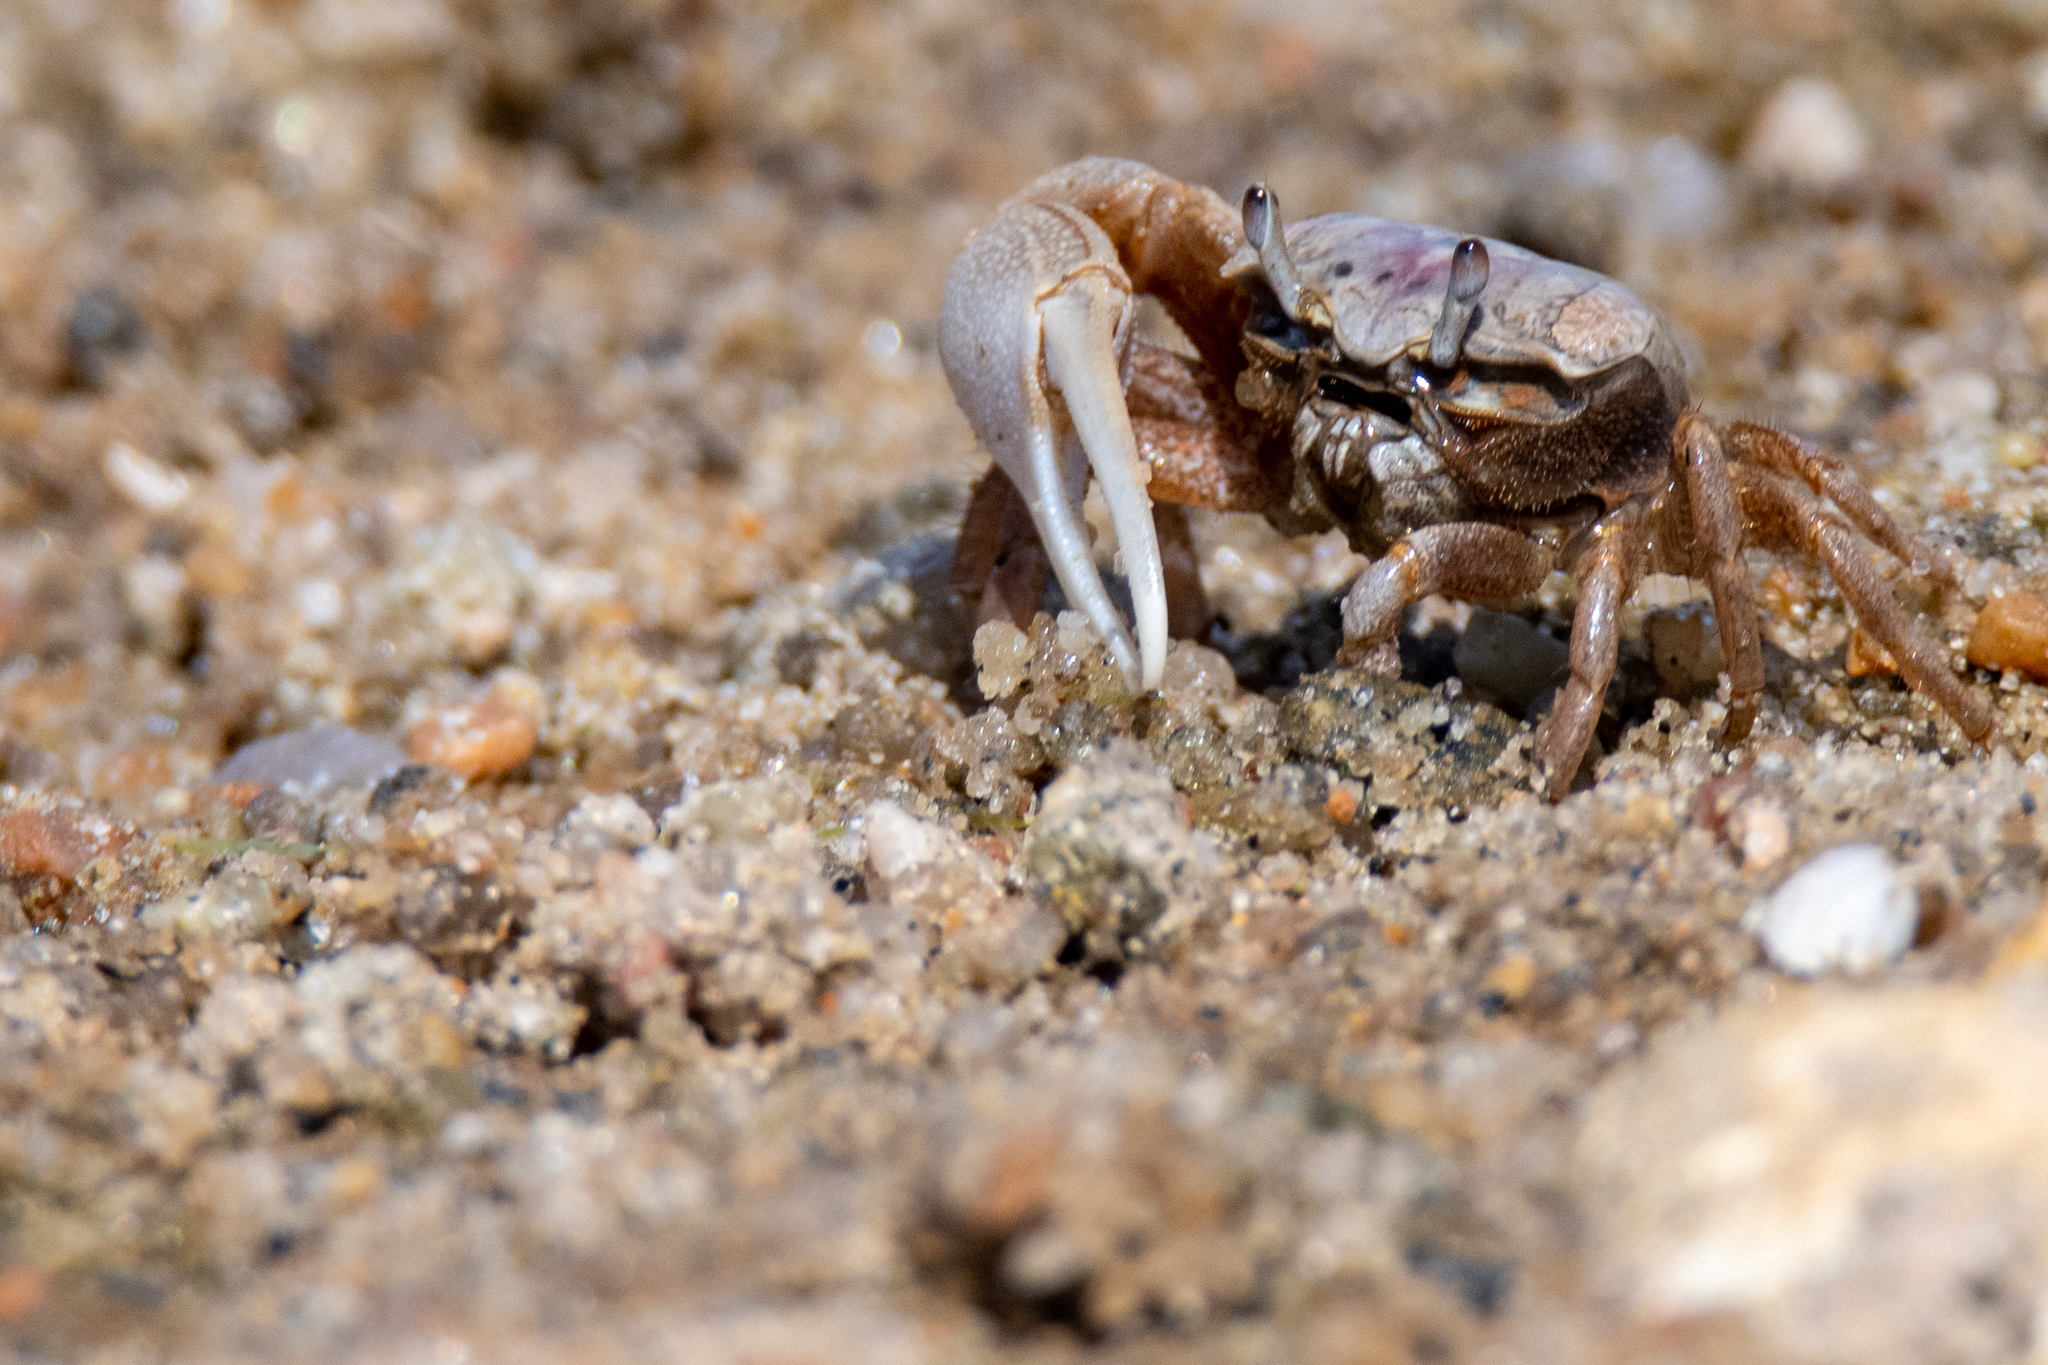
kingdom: Animalia
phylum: Arthropoda
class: Malacostraca
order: Decapoda
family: Ocypodidae
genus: Leptuca
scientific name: Leptuca pugilator
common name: Atlantic sand fiddler crab
